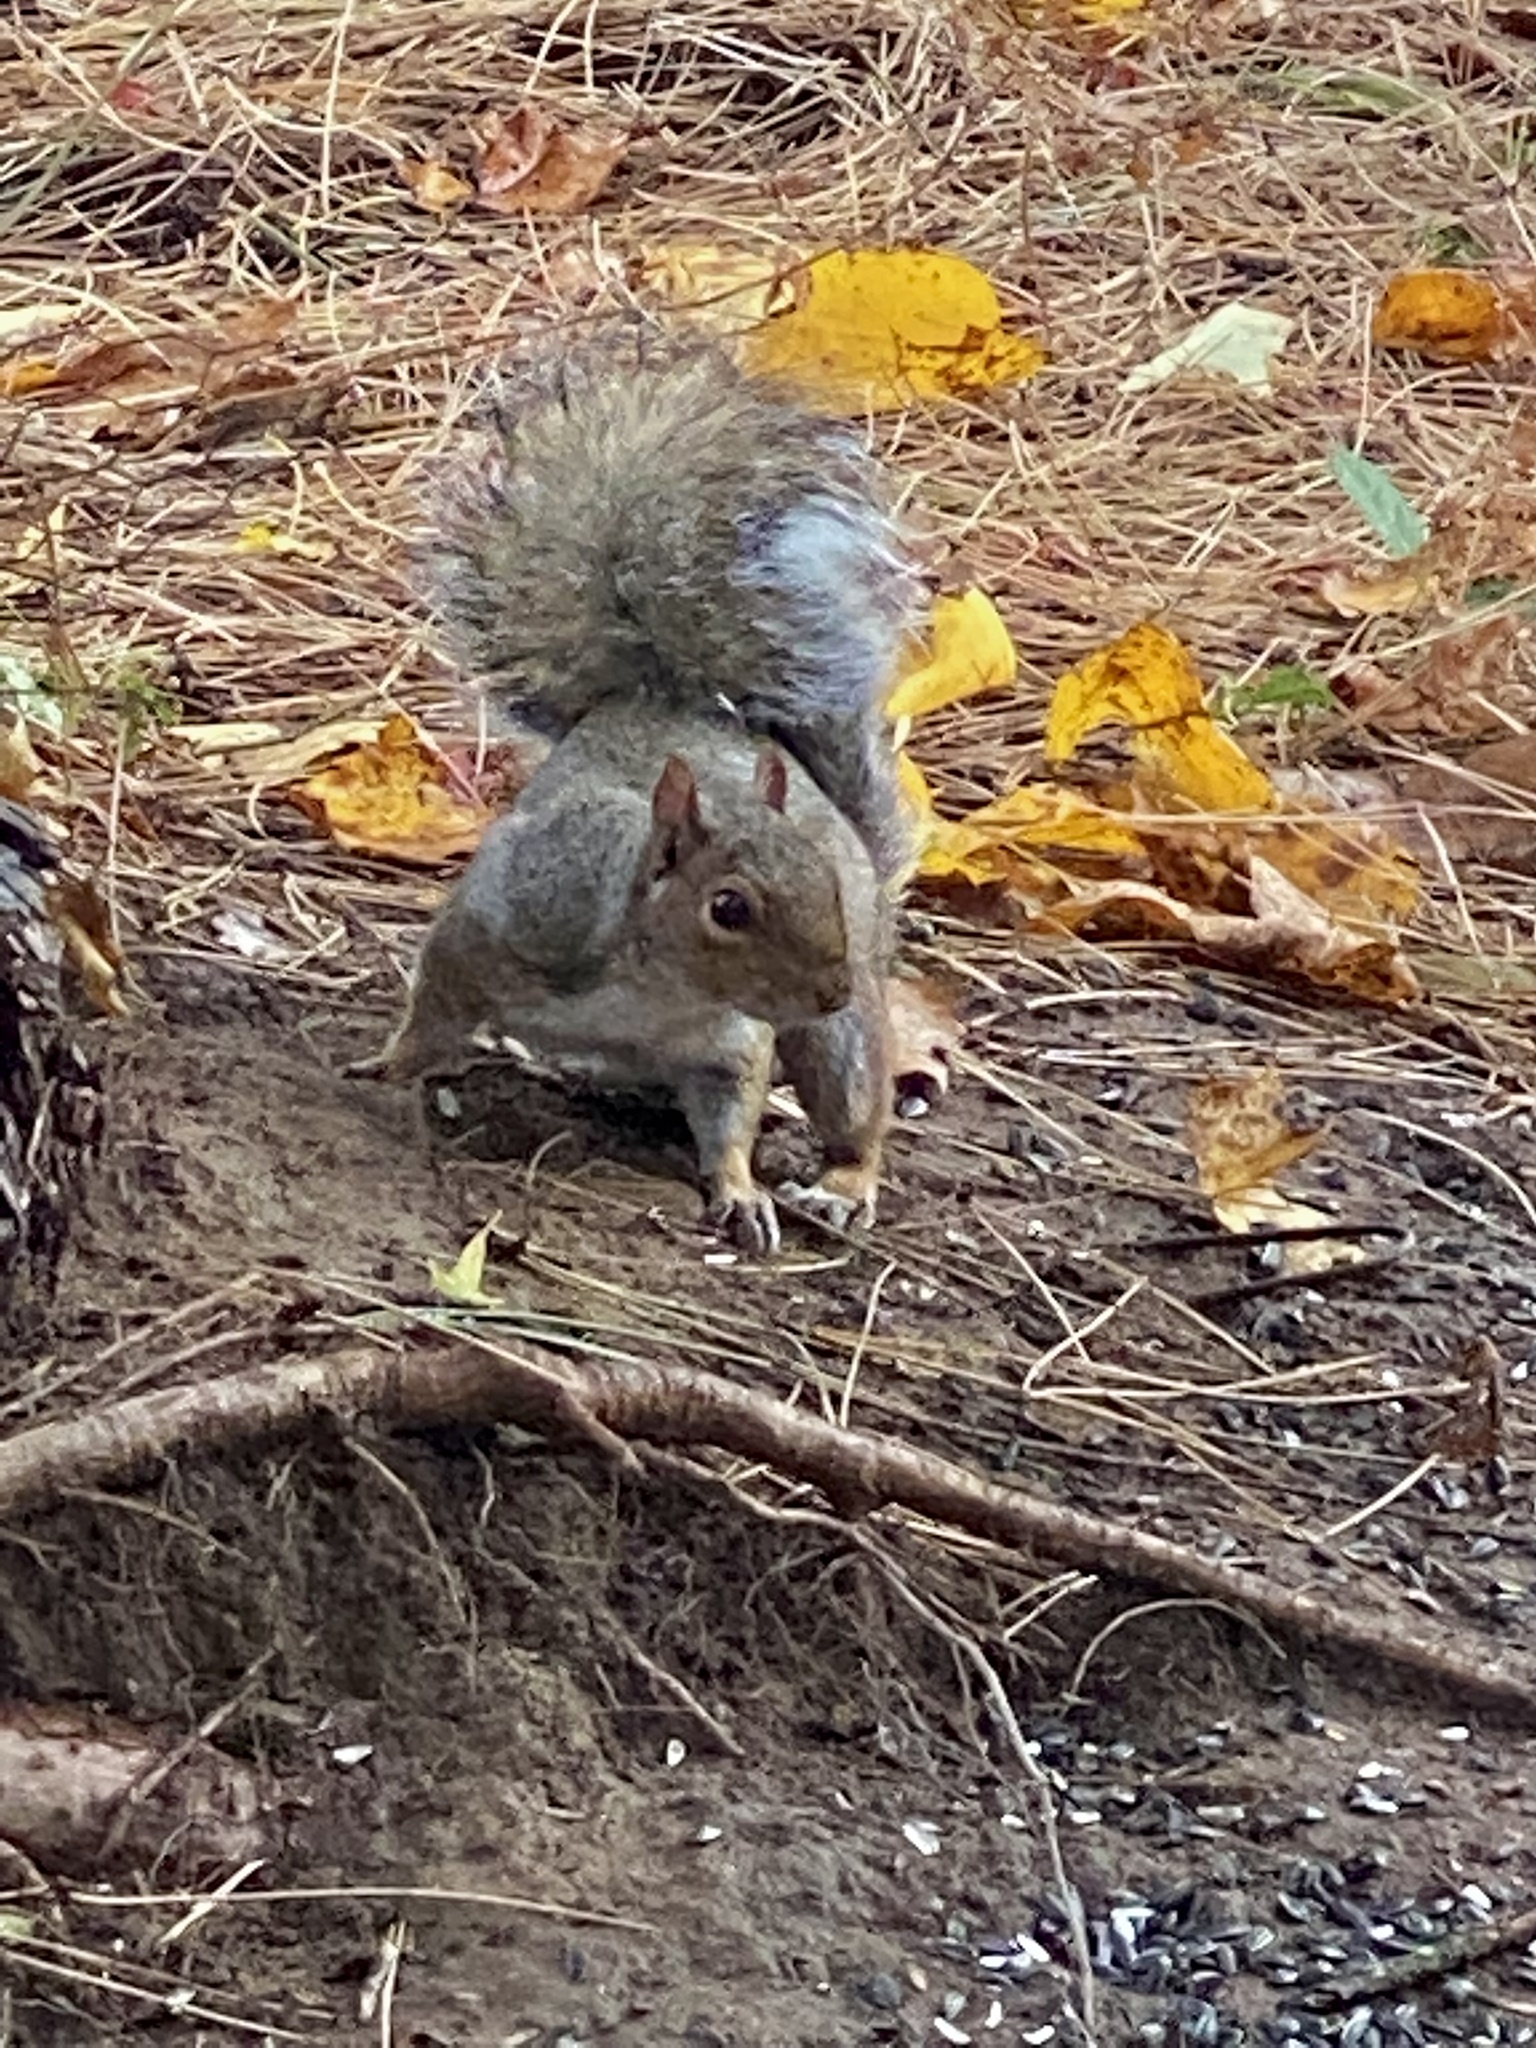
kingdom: Animalia
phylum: Chordata
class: Mammalia
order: Rodentia
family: Sciuridae
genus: Sciurus
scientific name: Sciurus carolinensis
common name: Eastern gray squirrel
